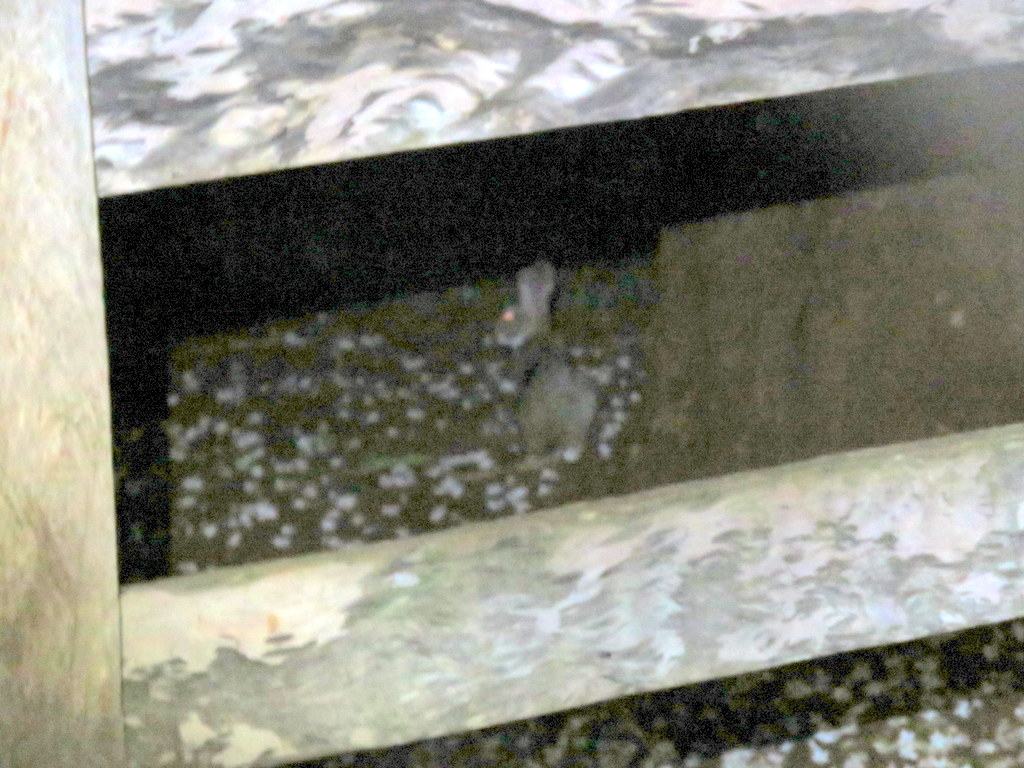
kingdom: Animalia
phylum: Chordata
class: Mammalia
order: Lagomorpha
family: Leporidae
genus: Sylvilagus
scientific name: Sylvilagus brasiliensis
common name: Tapeti
